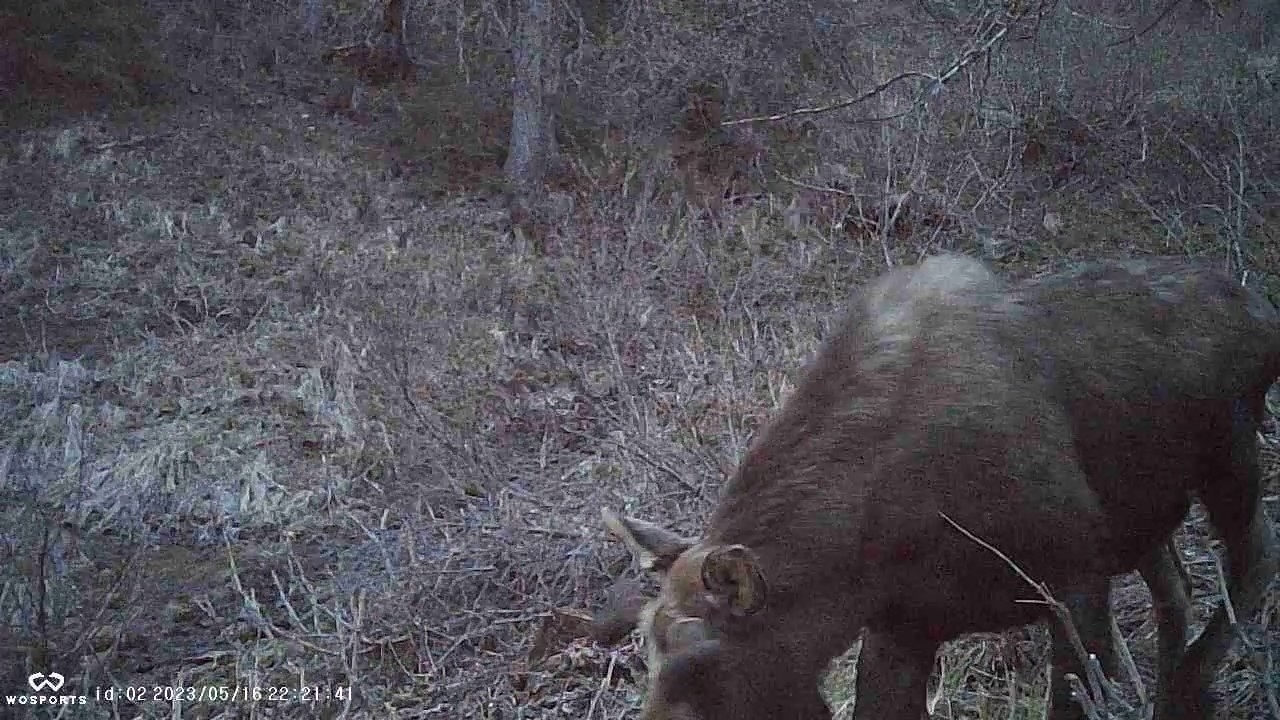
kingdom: Animalia
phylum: Chordata
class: Mammalia
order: Artiodactyla
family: Cervidae
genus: Alces
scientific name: Alces alces
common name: Moose
